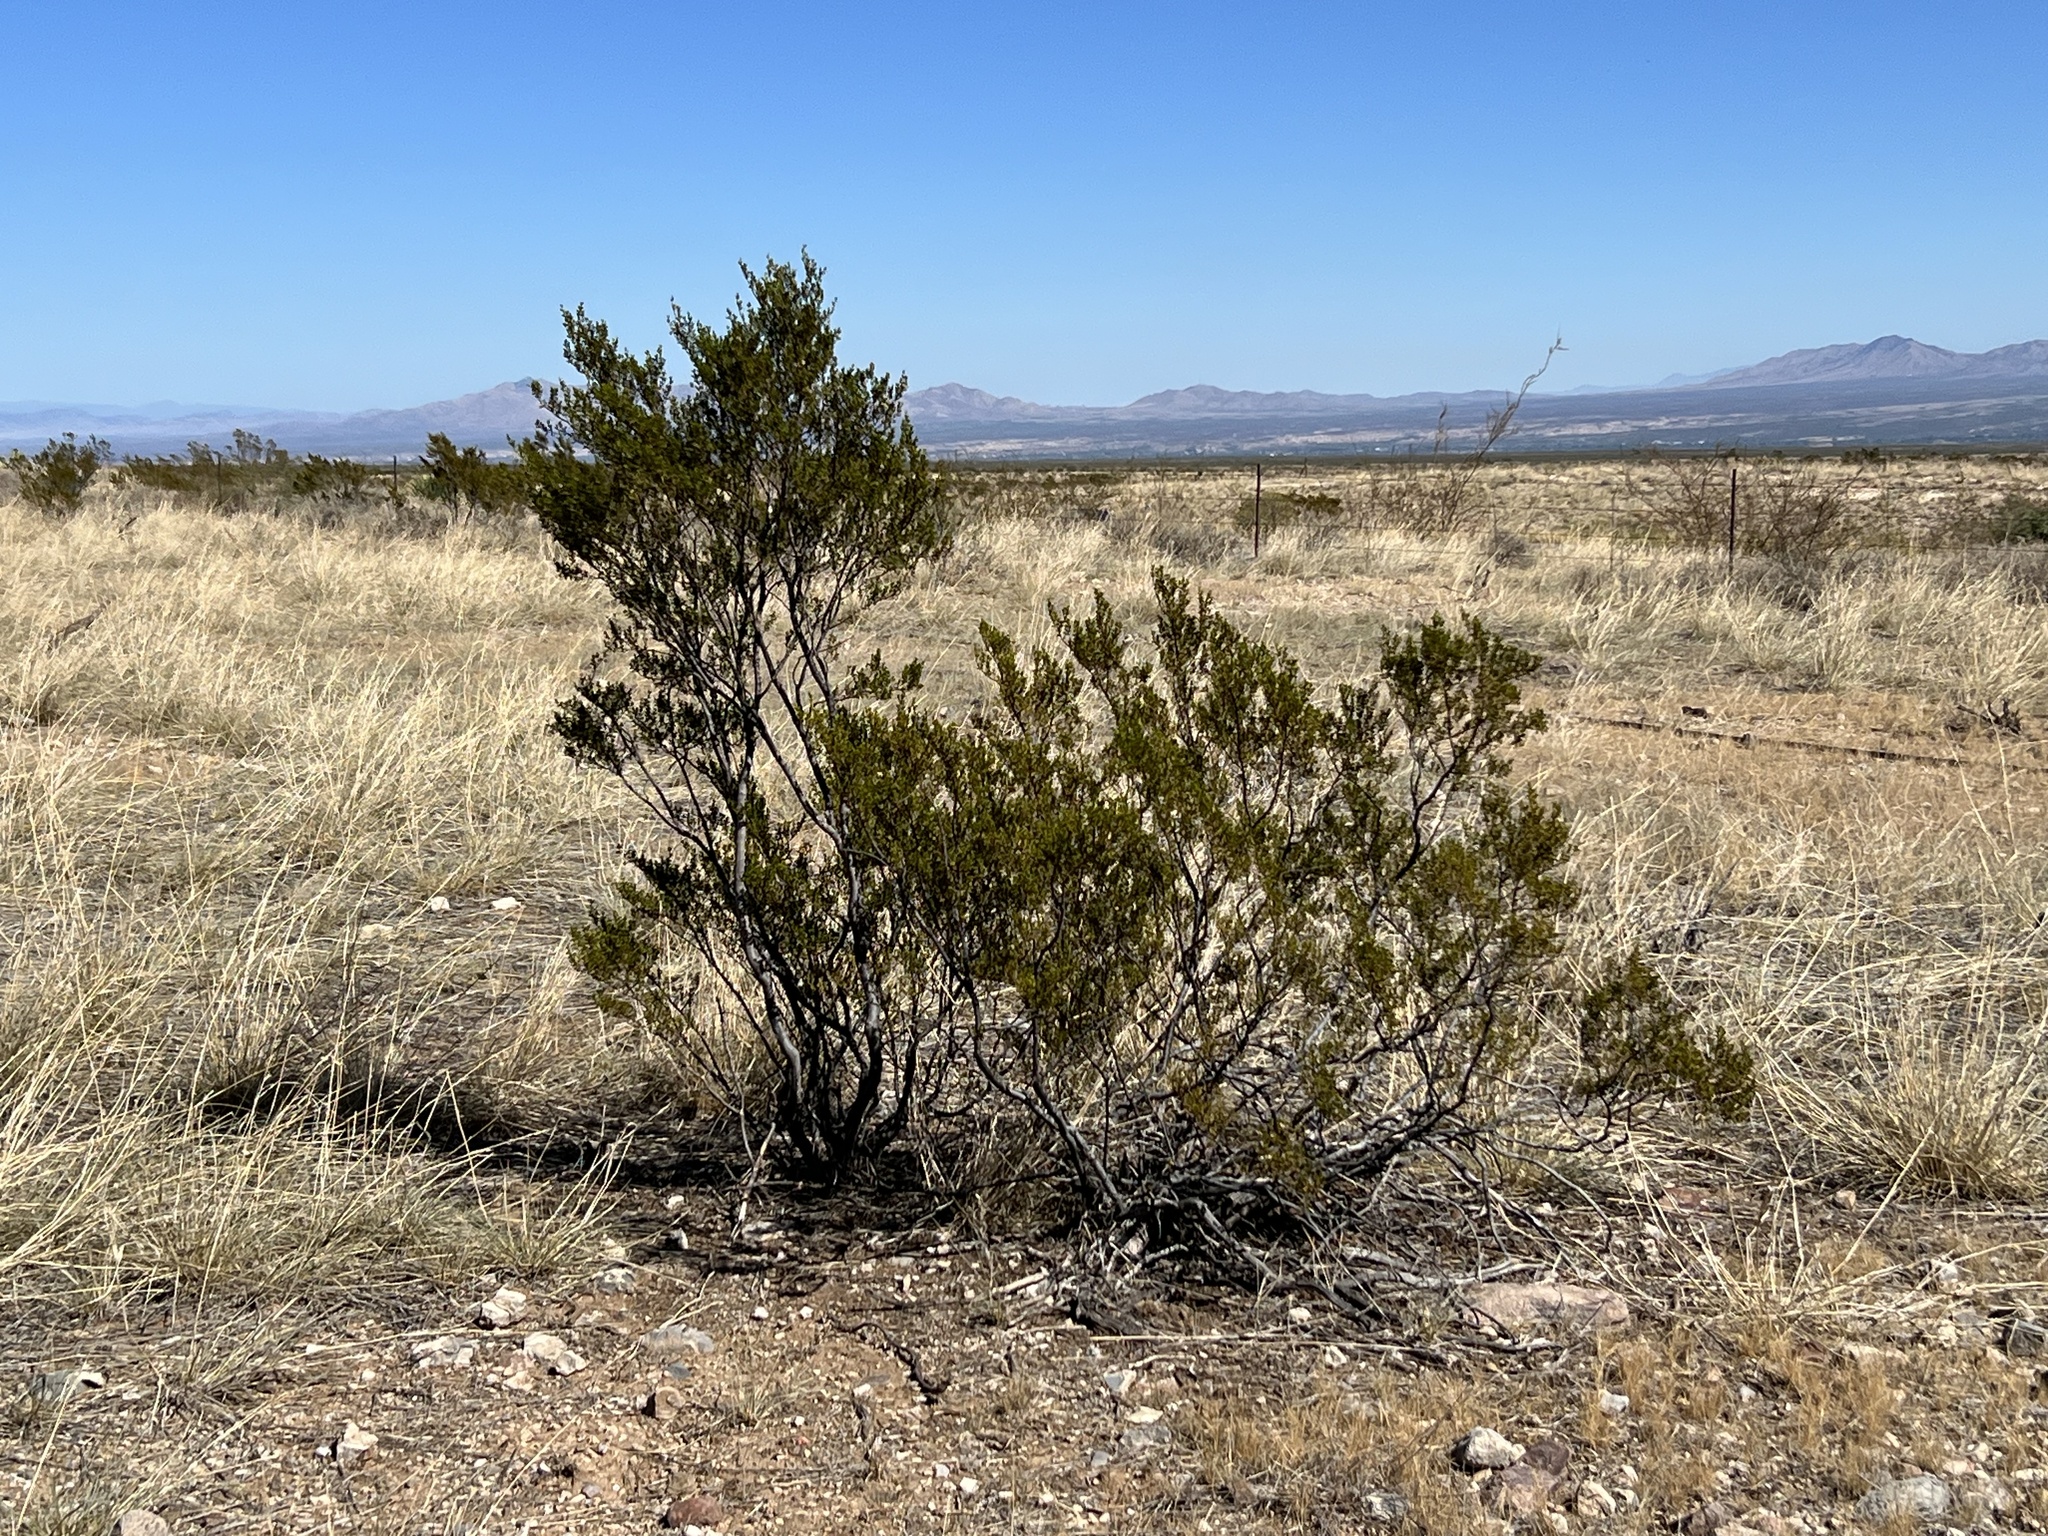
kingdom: Plantae
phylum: Tracheophyta
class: Magnoliopsida
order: Zygophyllales
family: Zygophyllaceae
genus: Larrea
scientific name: Larrea tridentata
